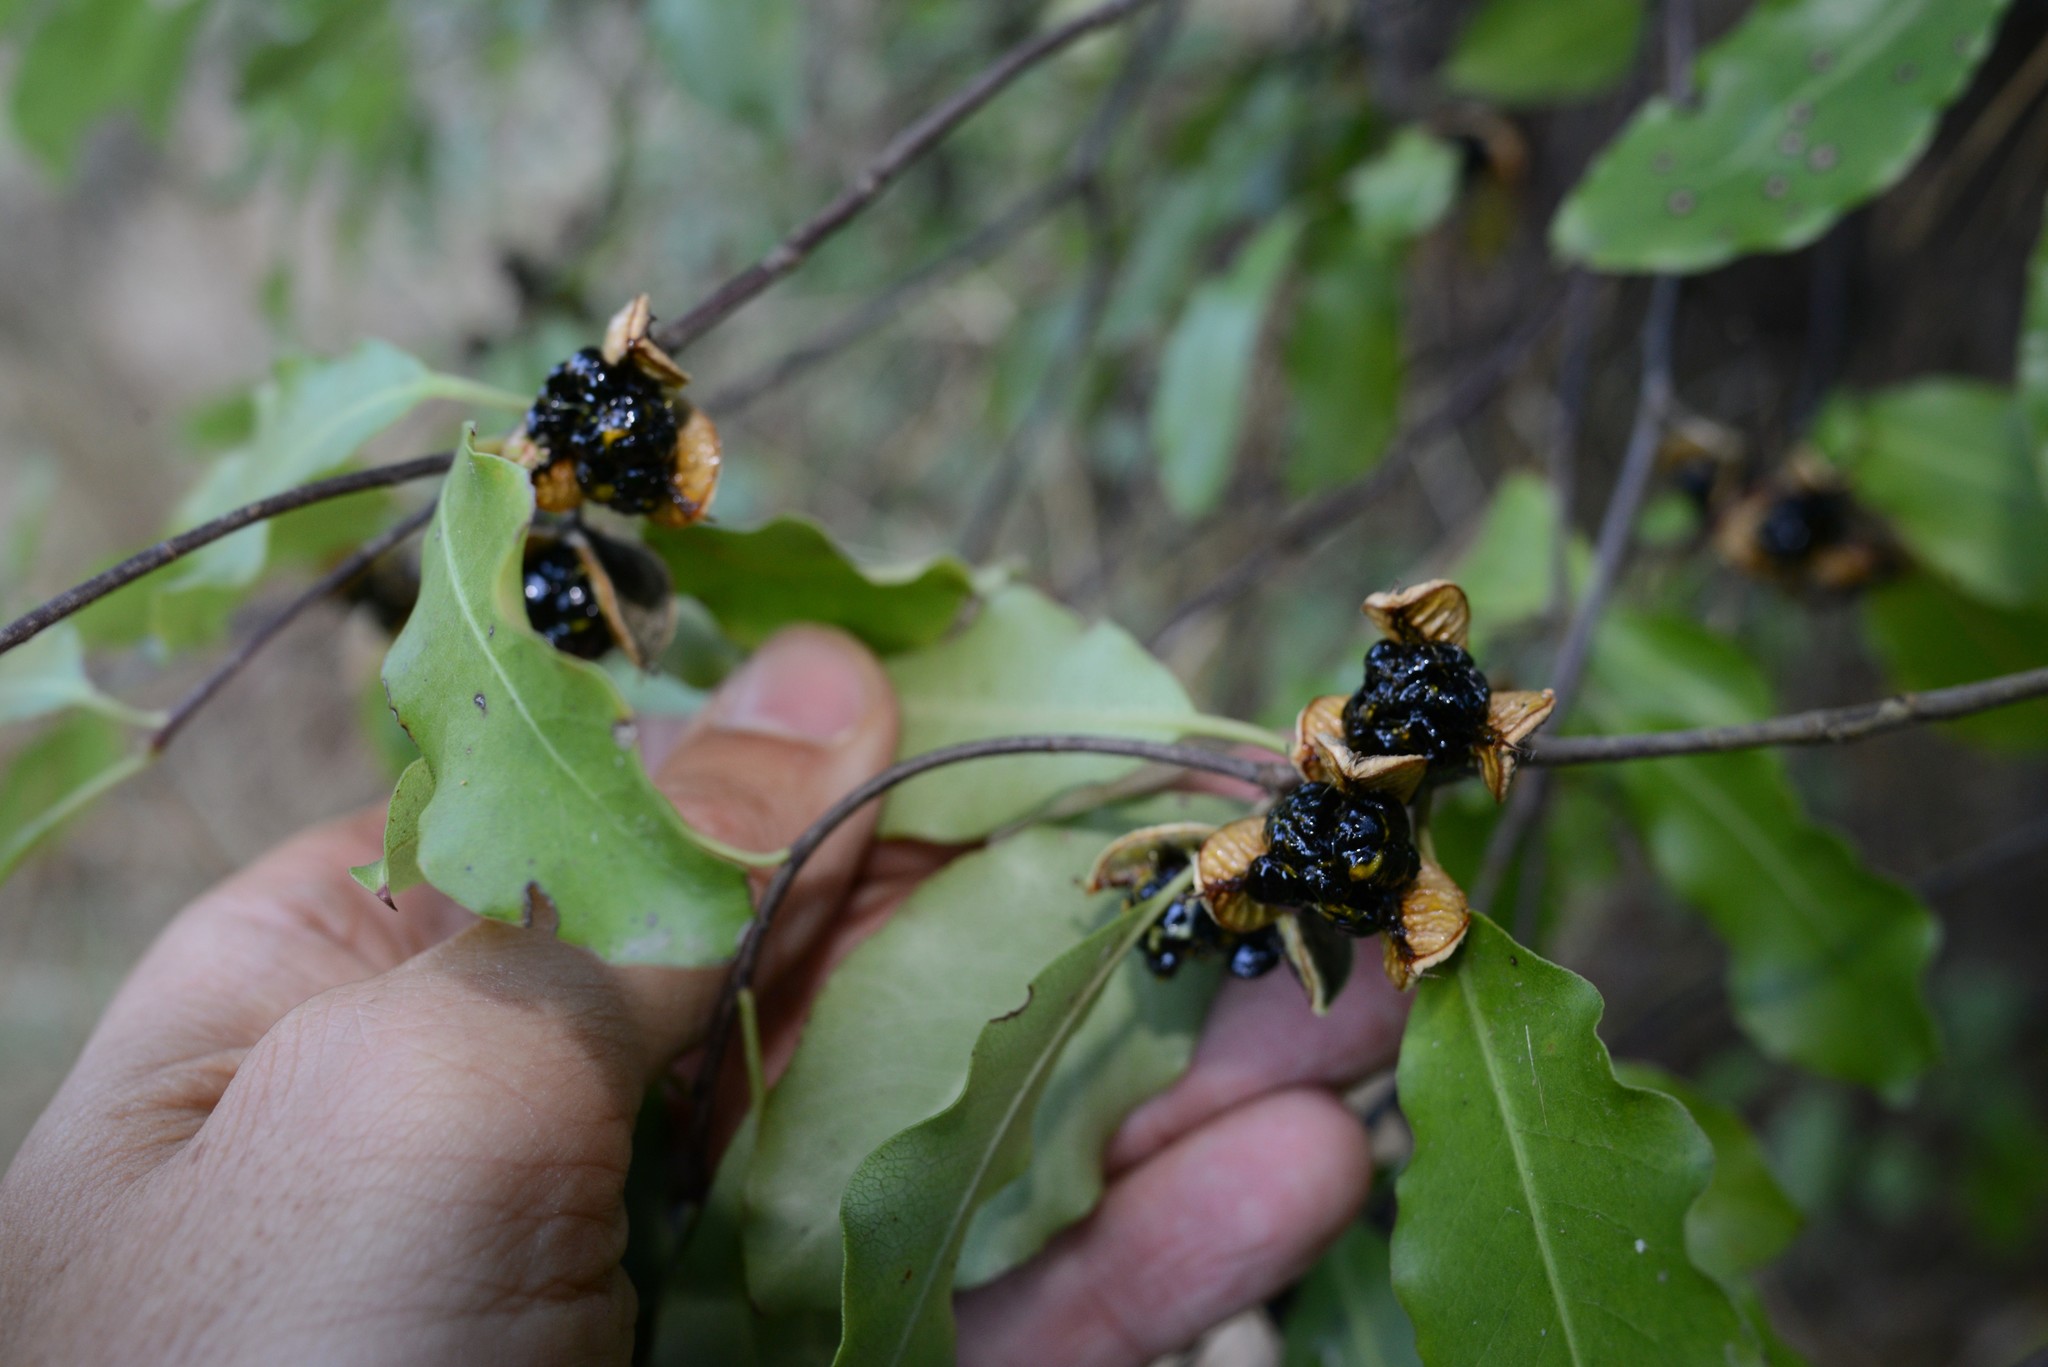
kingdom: Plantae
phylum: Tracheophyta
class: Magnoliopsida
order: Apiales
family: Pittosporaceae
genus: Pittosporum
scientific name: Pittosporum tenuifolium
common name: Kohuhu
